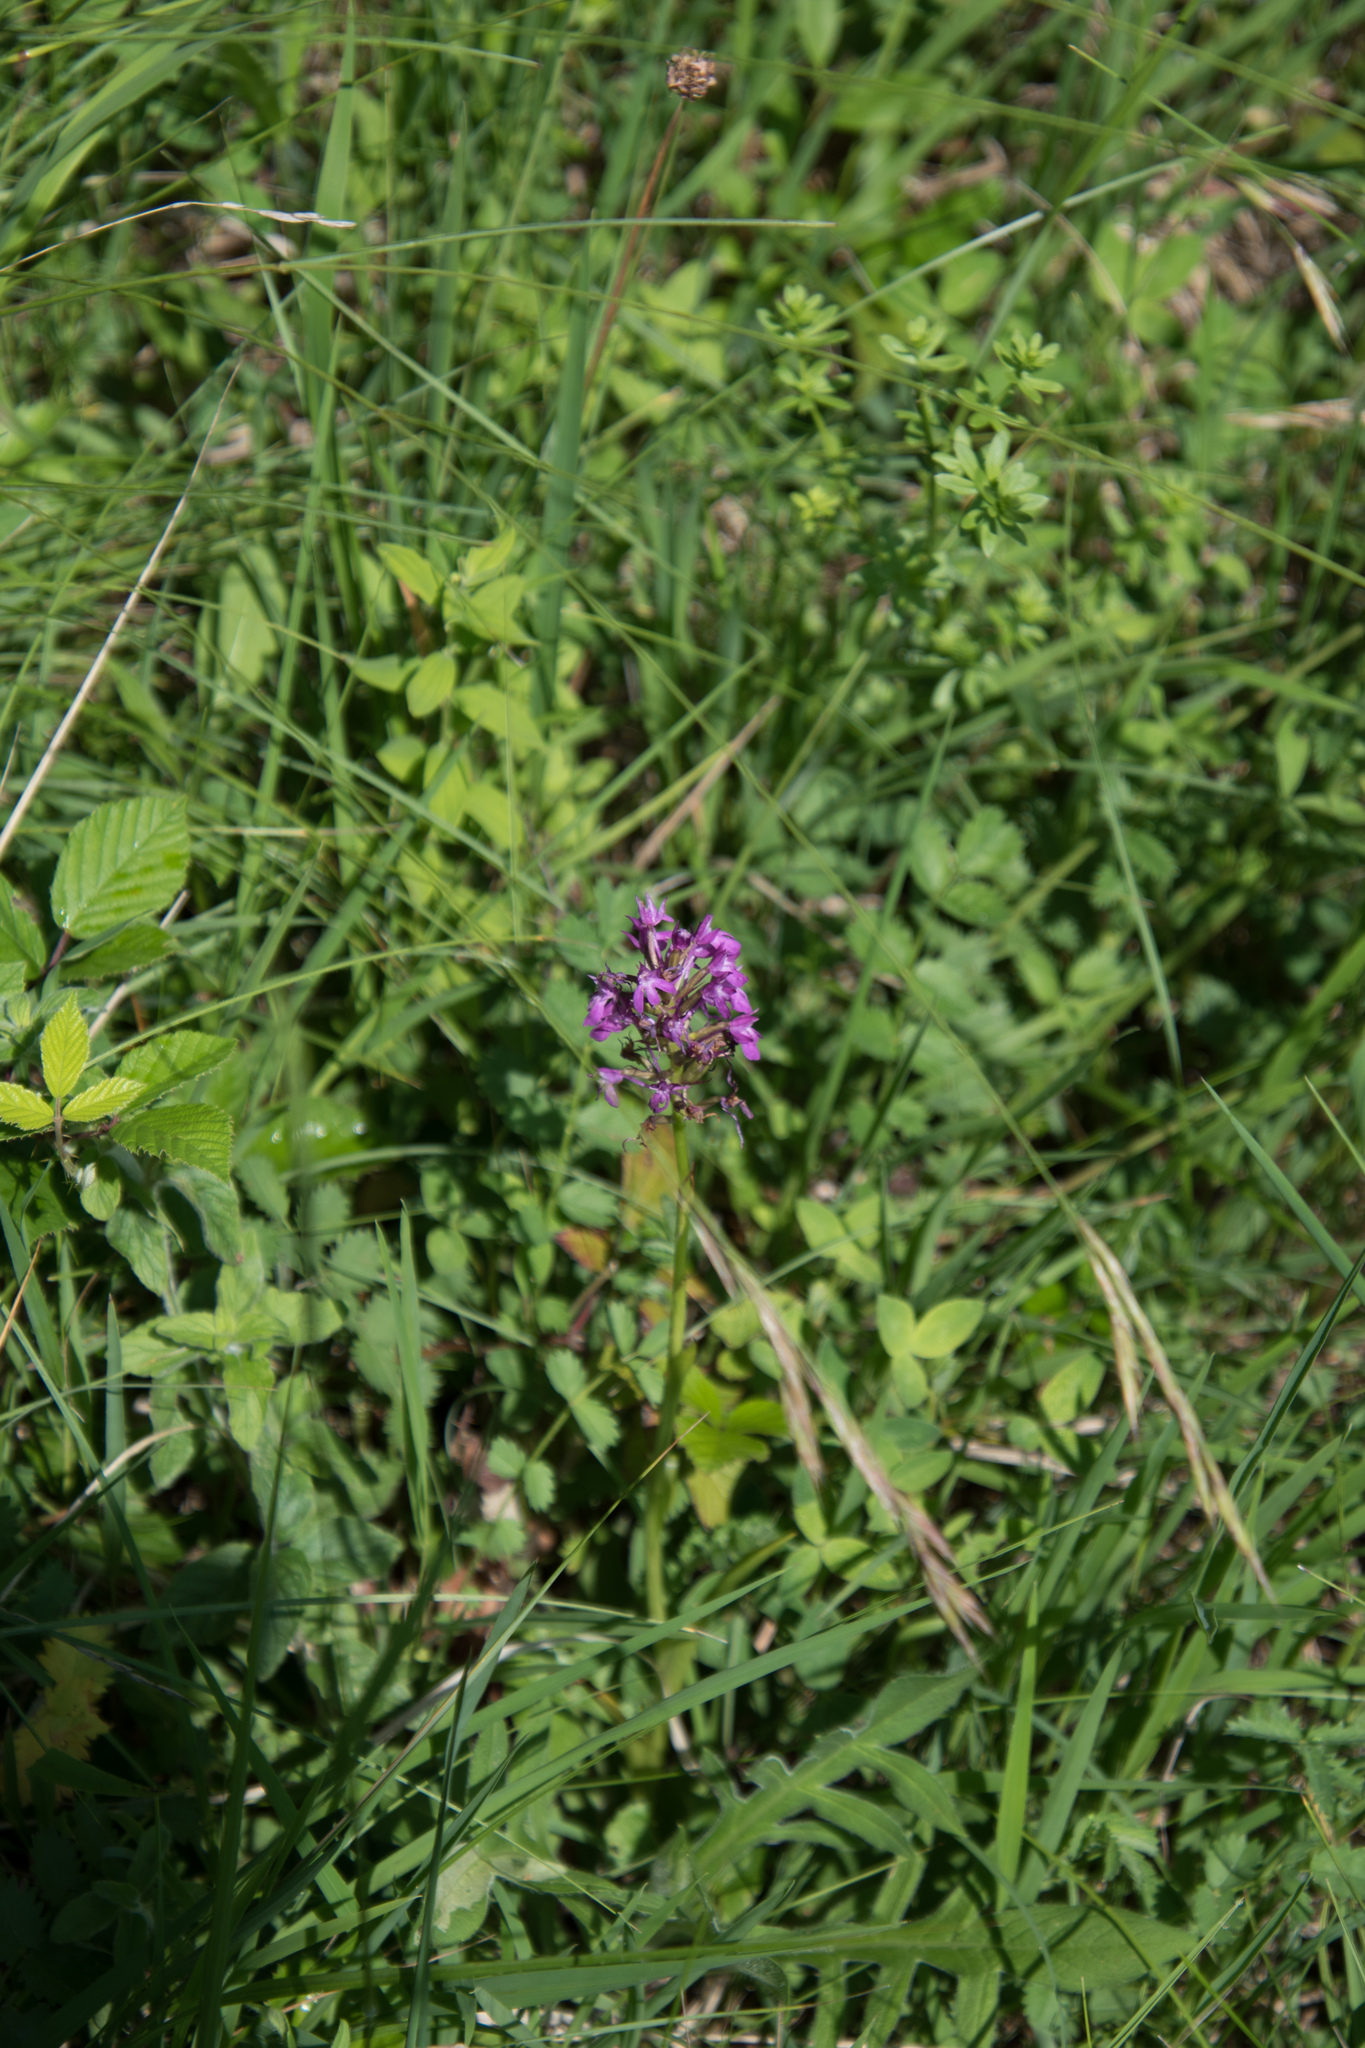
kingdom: Plantae
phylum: Tracheophyta
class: Liliopsida
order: Asparagales
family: Orchidaceae
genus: Anacamptis
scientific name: Anacamptis pyramidalis
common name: Pyramidal orchid
